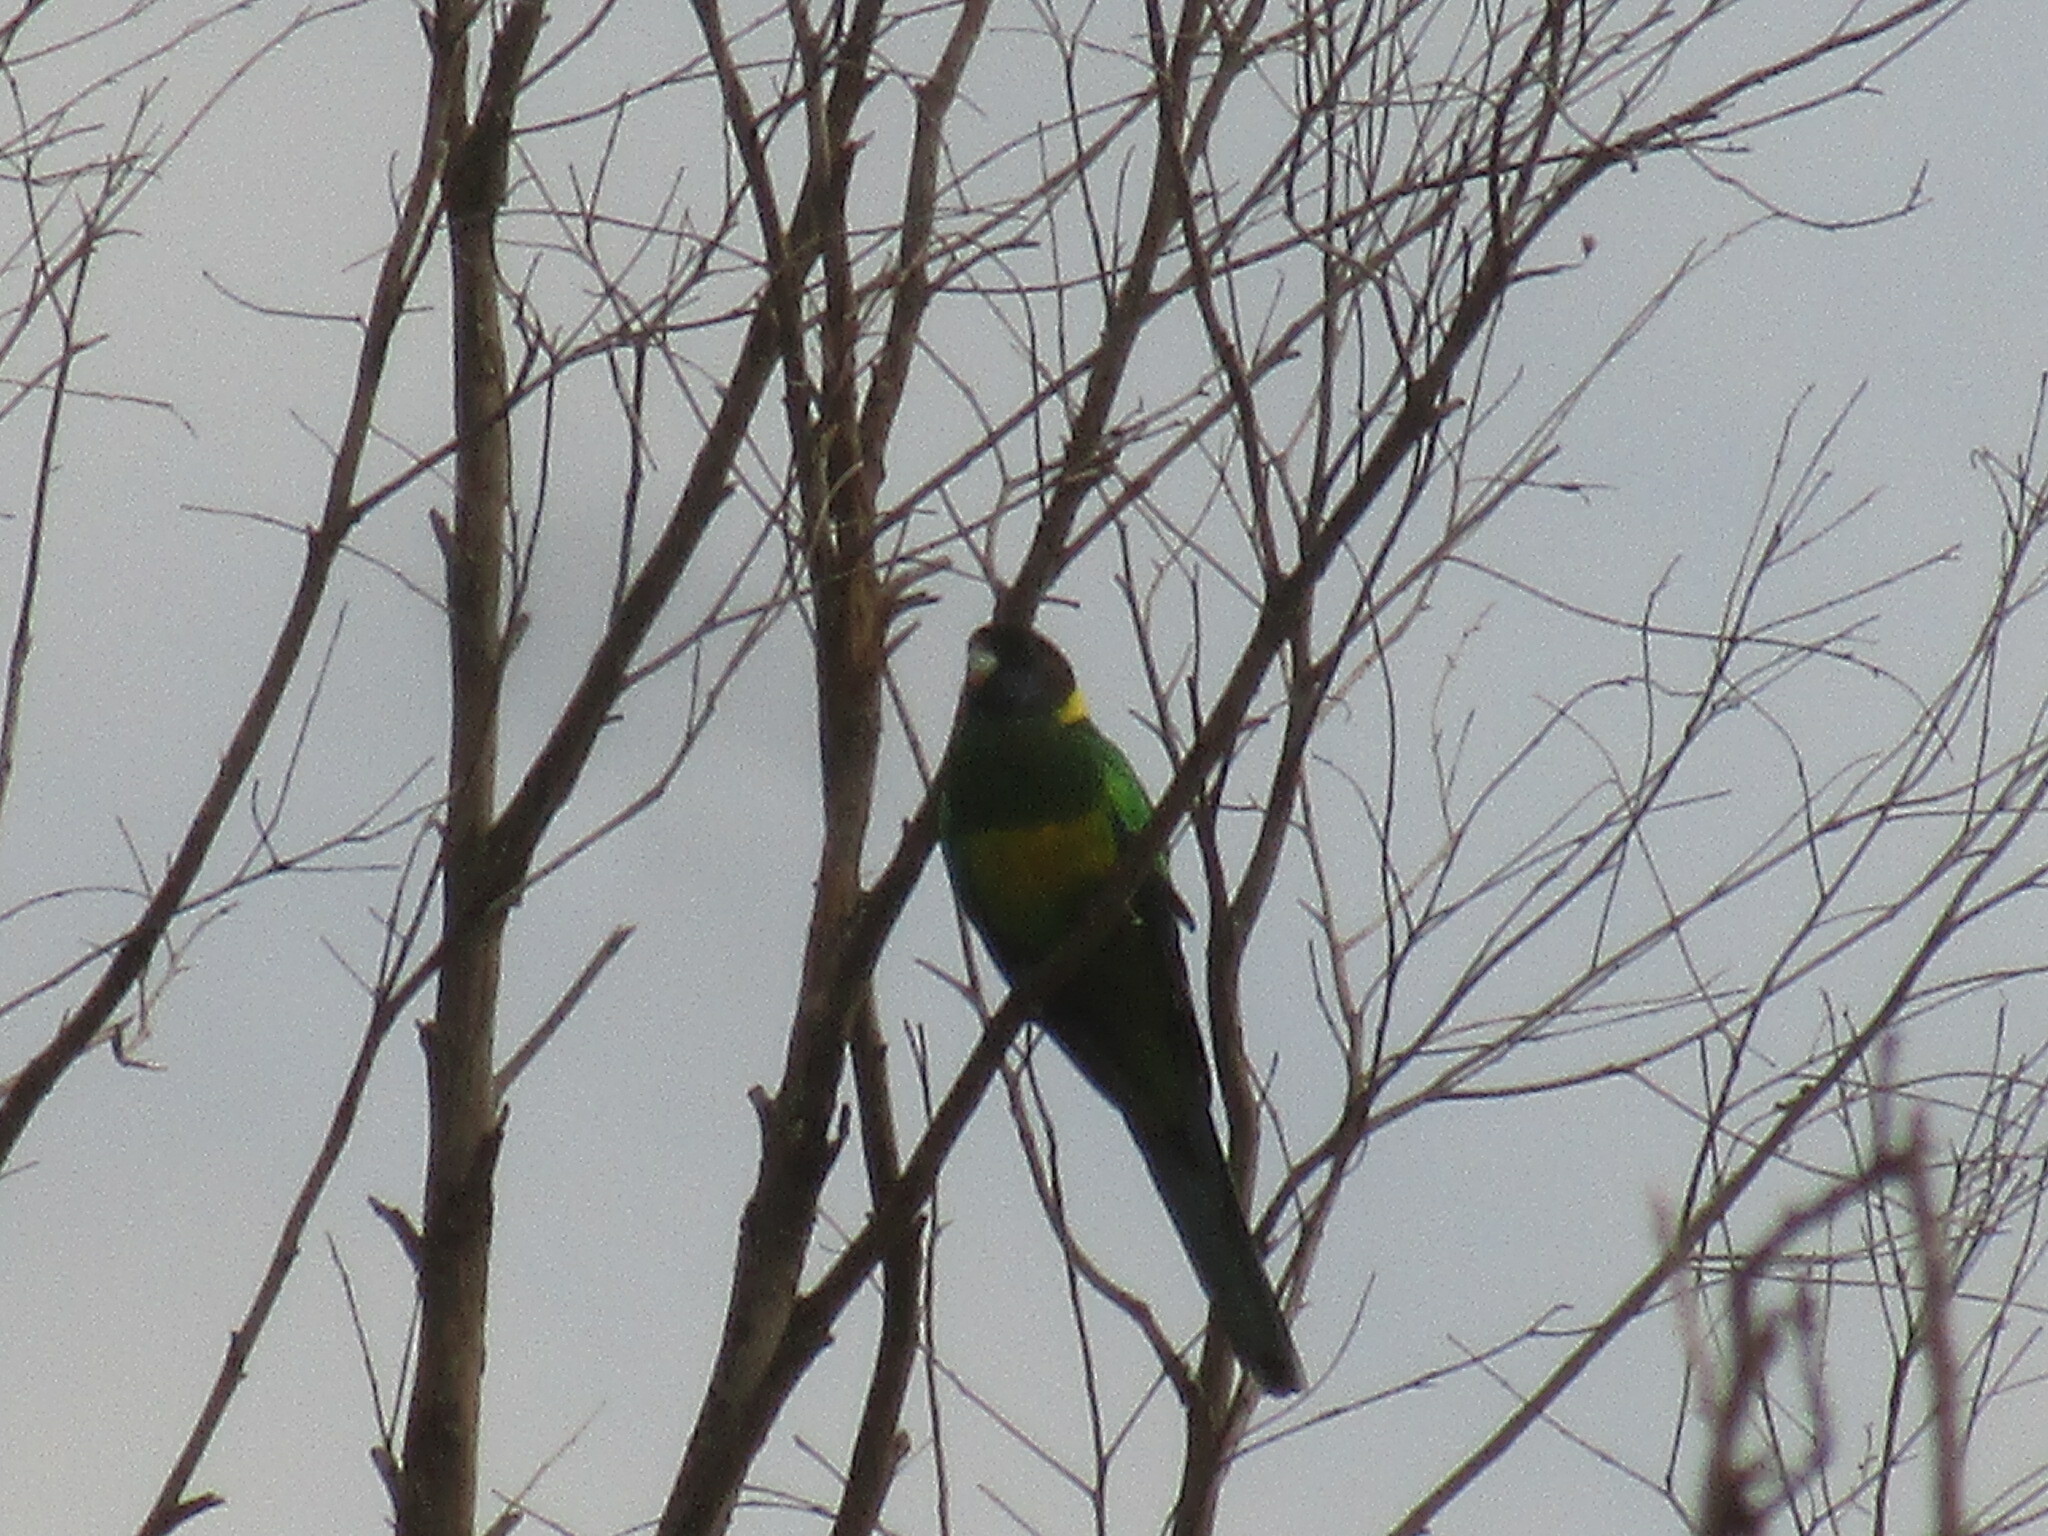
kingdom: Animalia
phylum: Chordata
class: Aves
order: Psittaciformes
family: Psittacidae
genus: Barnardius
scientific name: Barnardius
